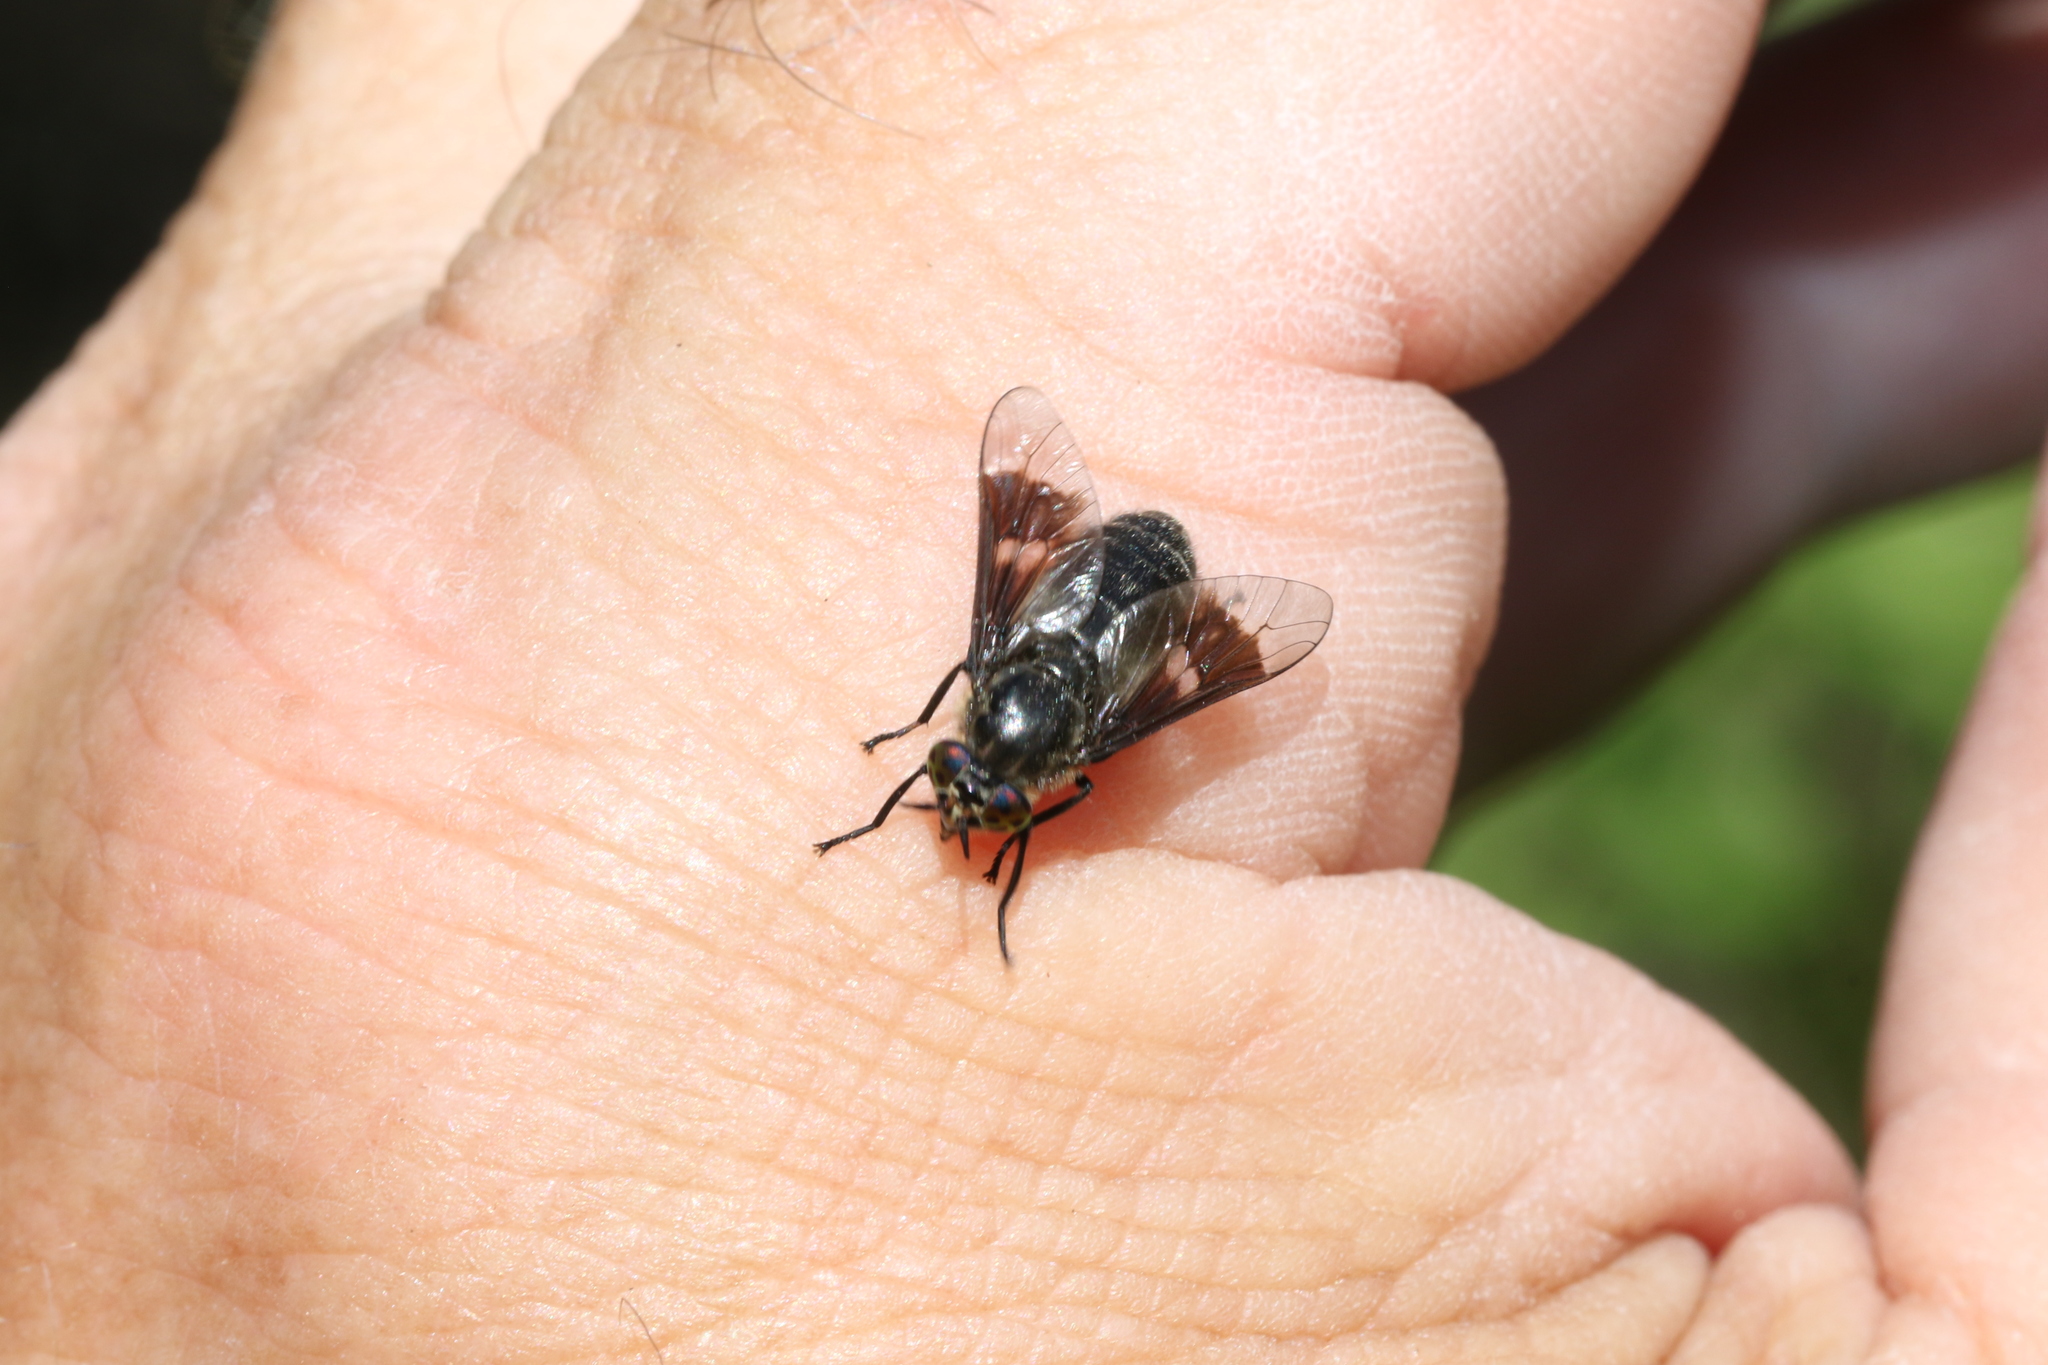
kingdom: Animalia
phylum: Arthropoda
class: Insecta
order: Diptera
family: Tabanidae
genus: Chrysops
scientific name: Chrysops ater
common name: Dark deer fly
